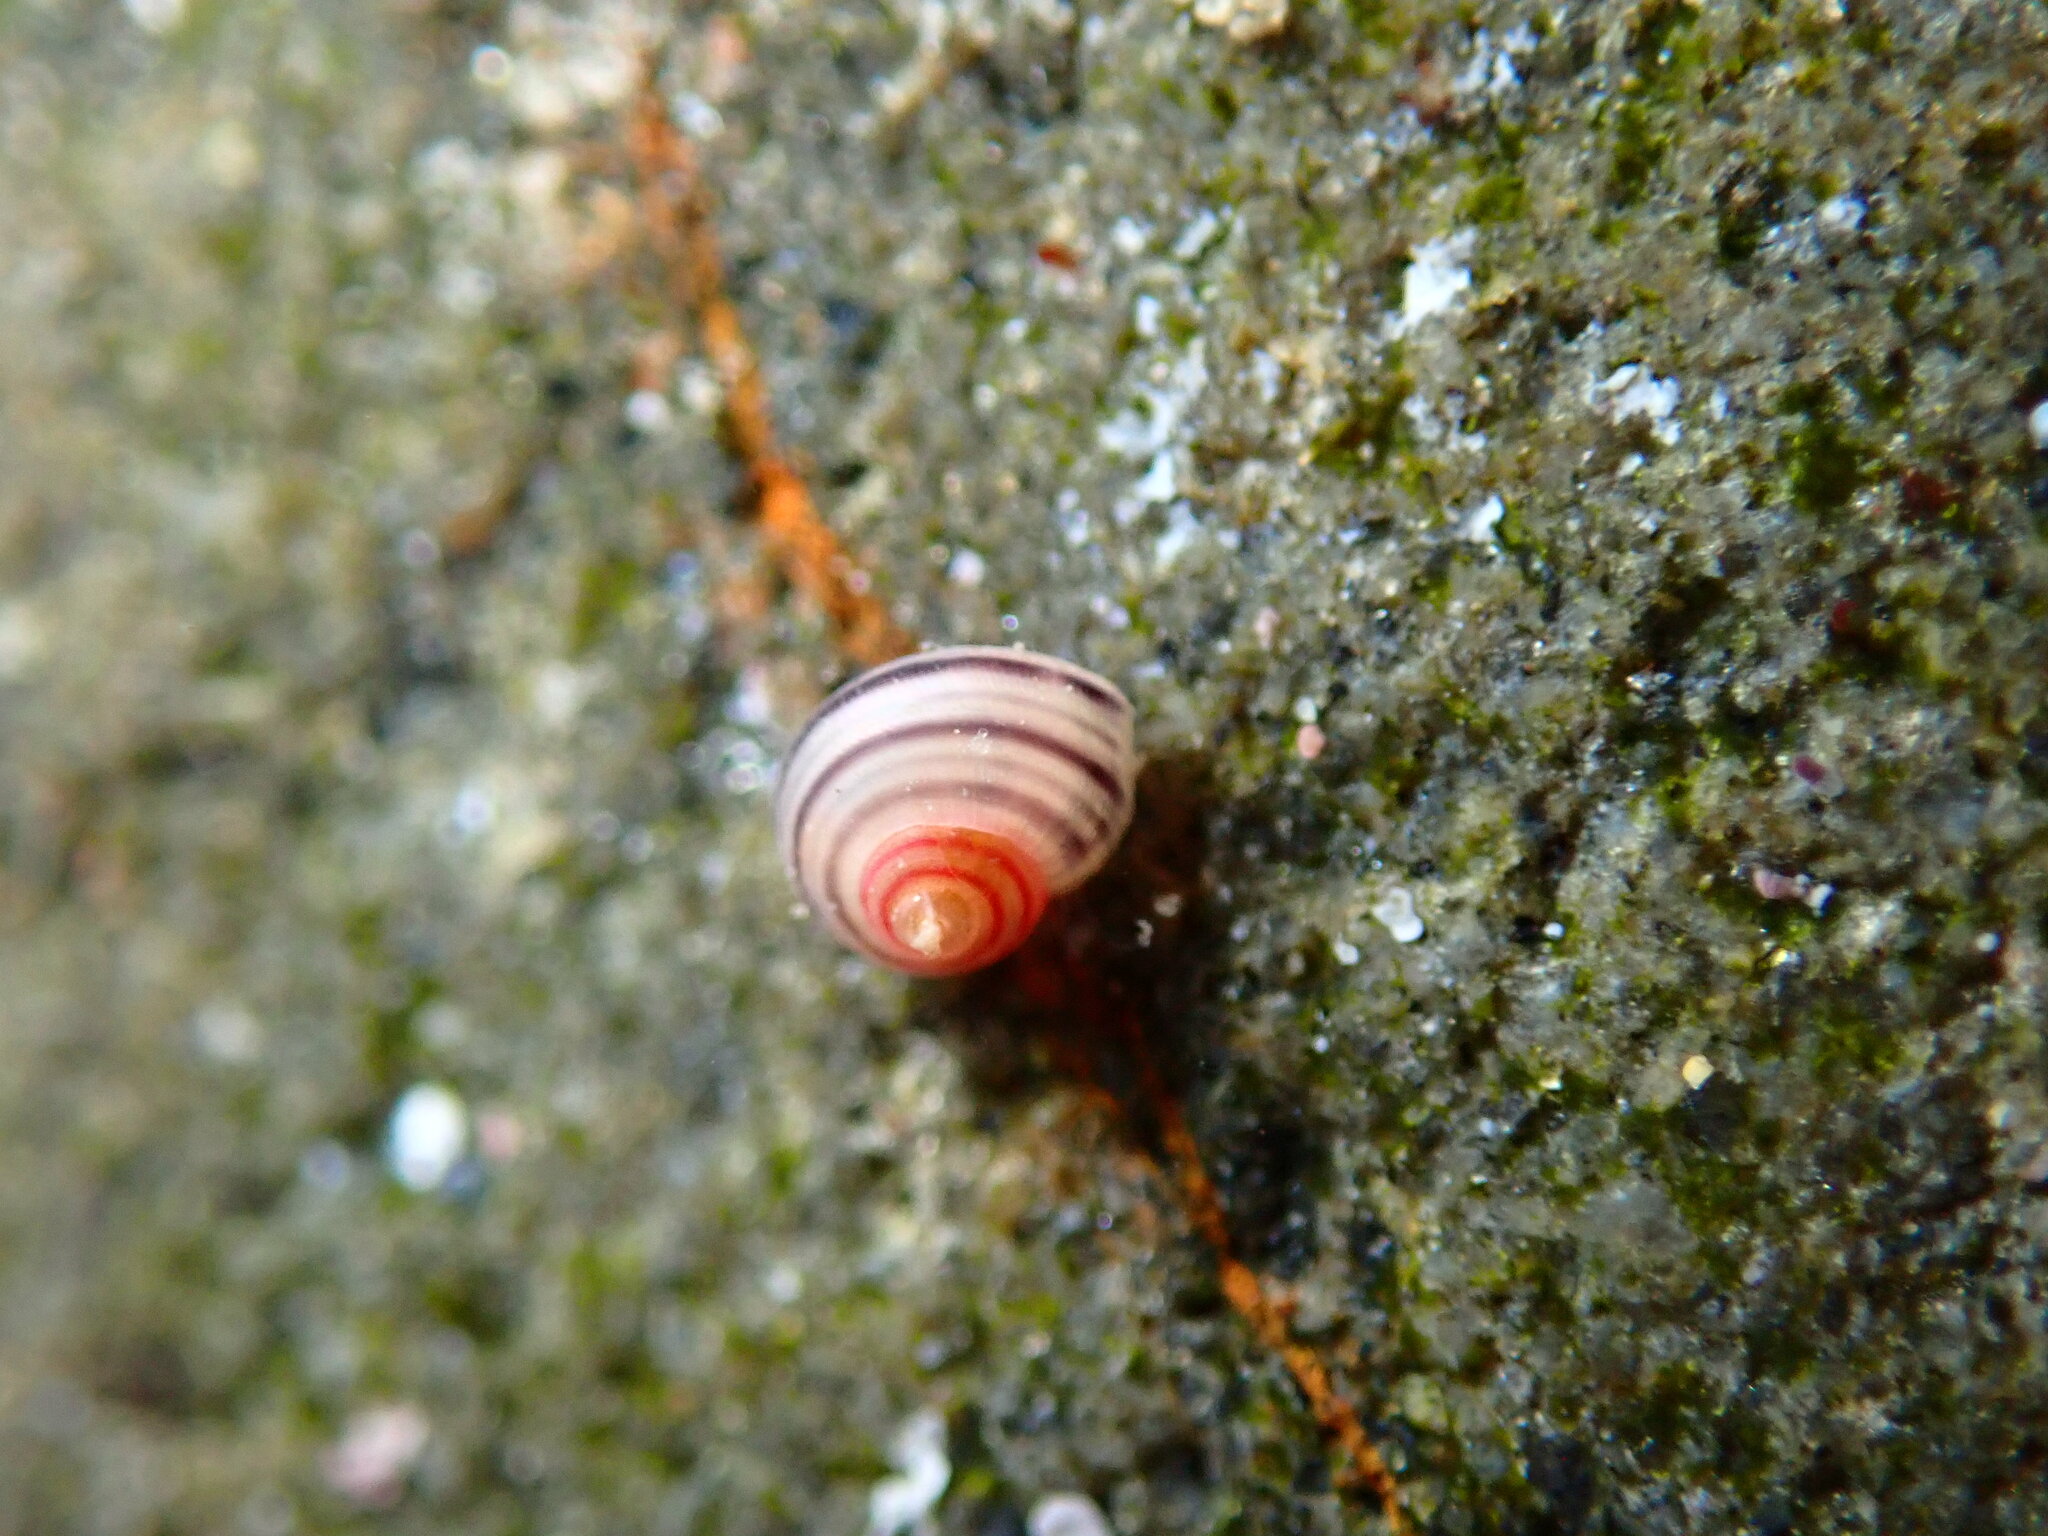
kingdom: Animalia
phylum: Mollusca
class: Gastropoda
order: Trochida
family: Trochidae
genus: Coelotrochus
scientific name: Coelotrochus chathamensis
